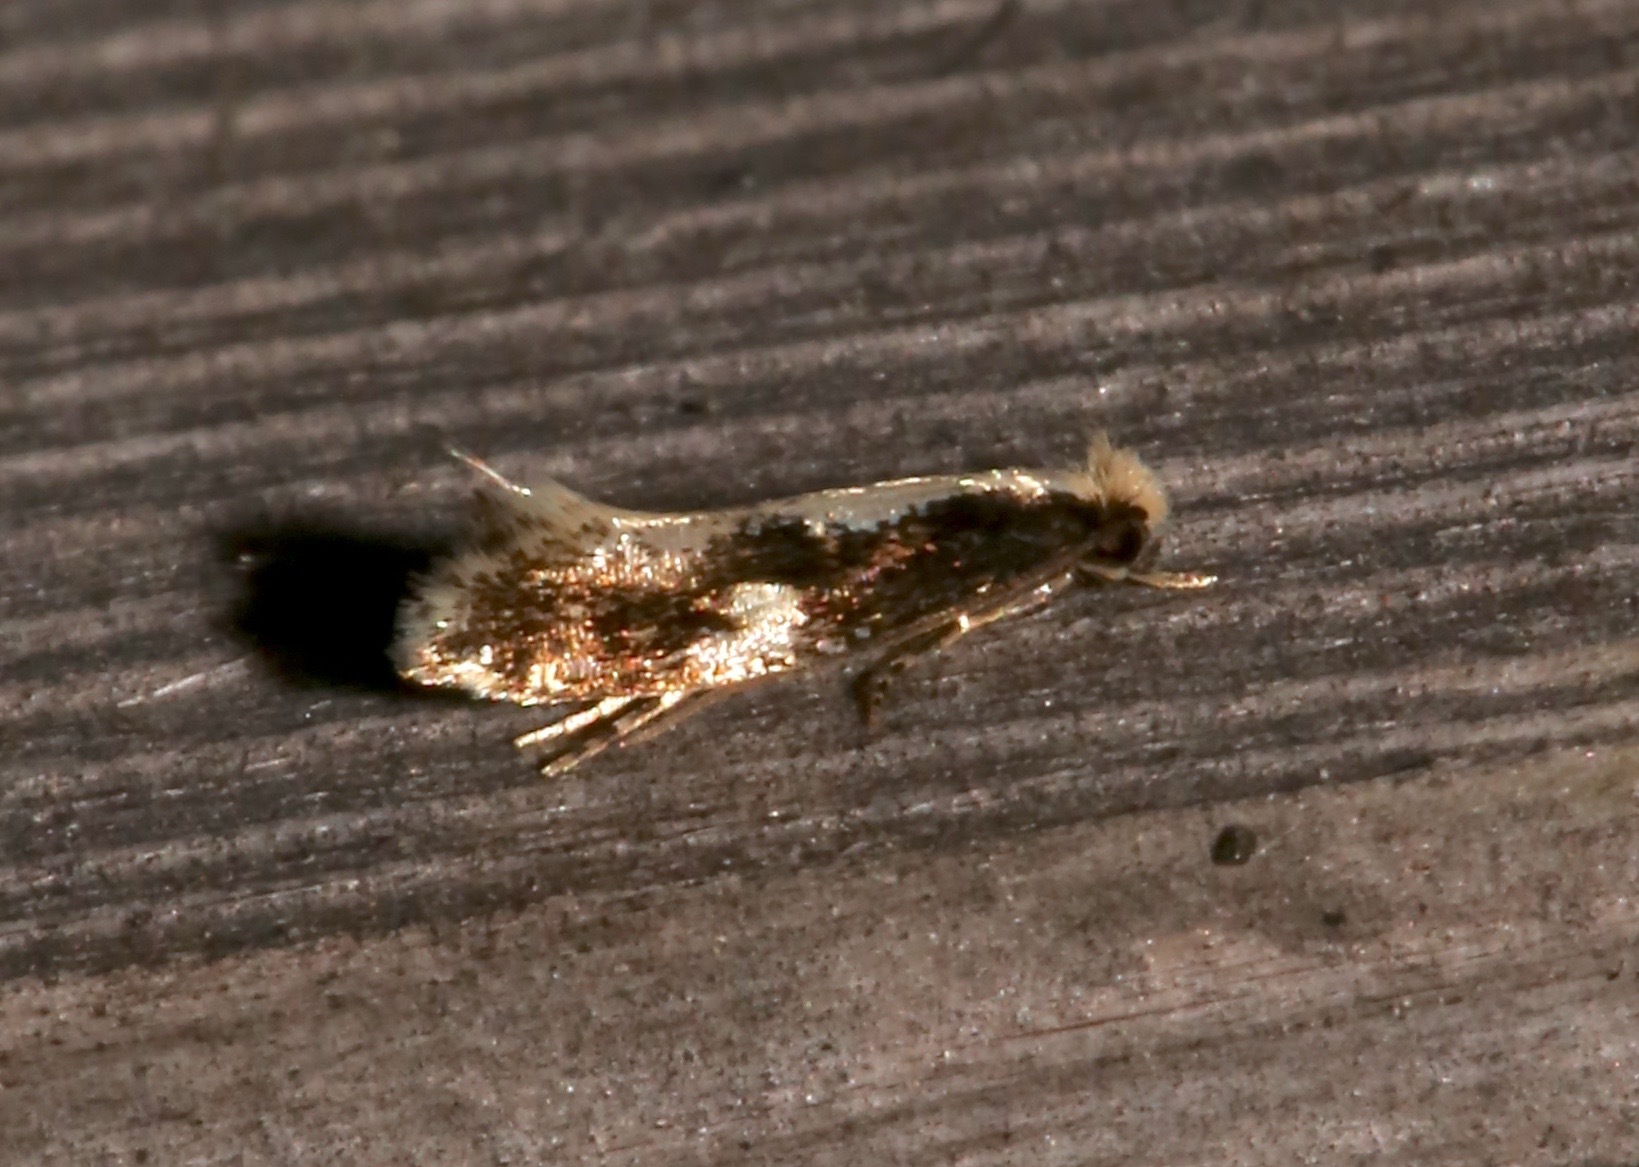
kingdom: Animalia
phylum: Arthropoda
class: Insecta
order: Lepidoptera
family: Tineidae
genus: Monopis
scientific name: Monopis dorsistrigella
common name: Skunkback monopis moth
